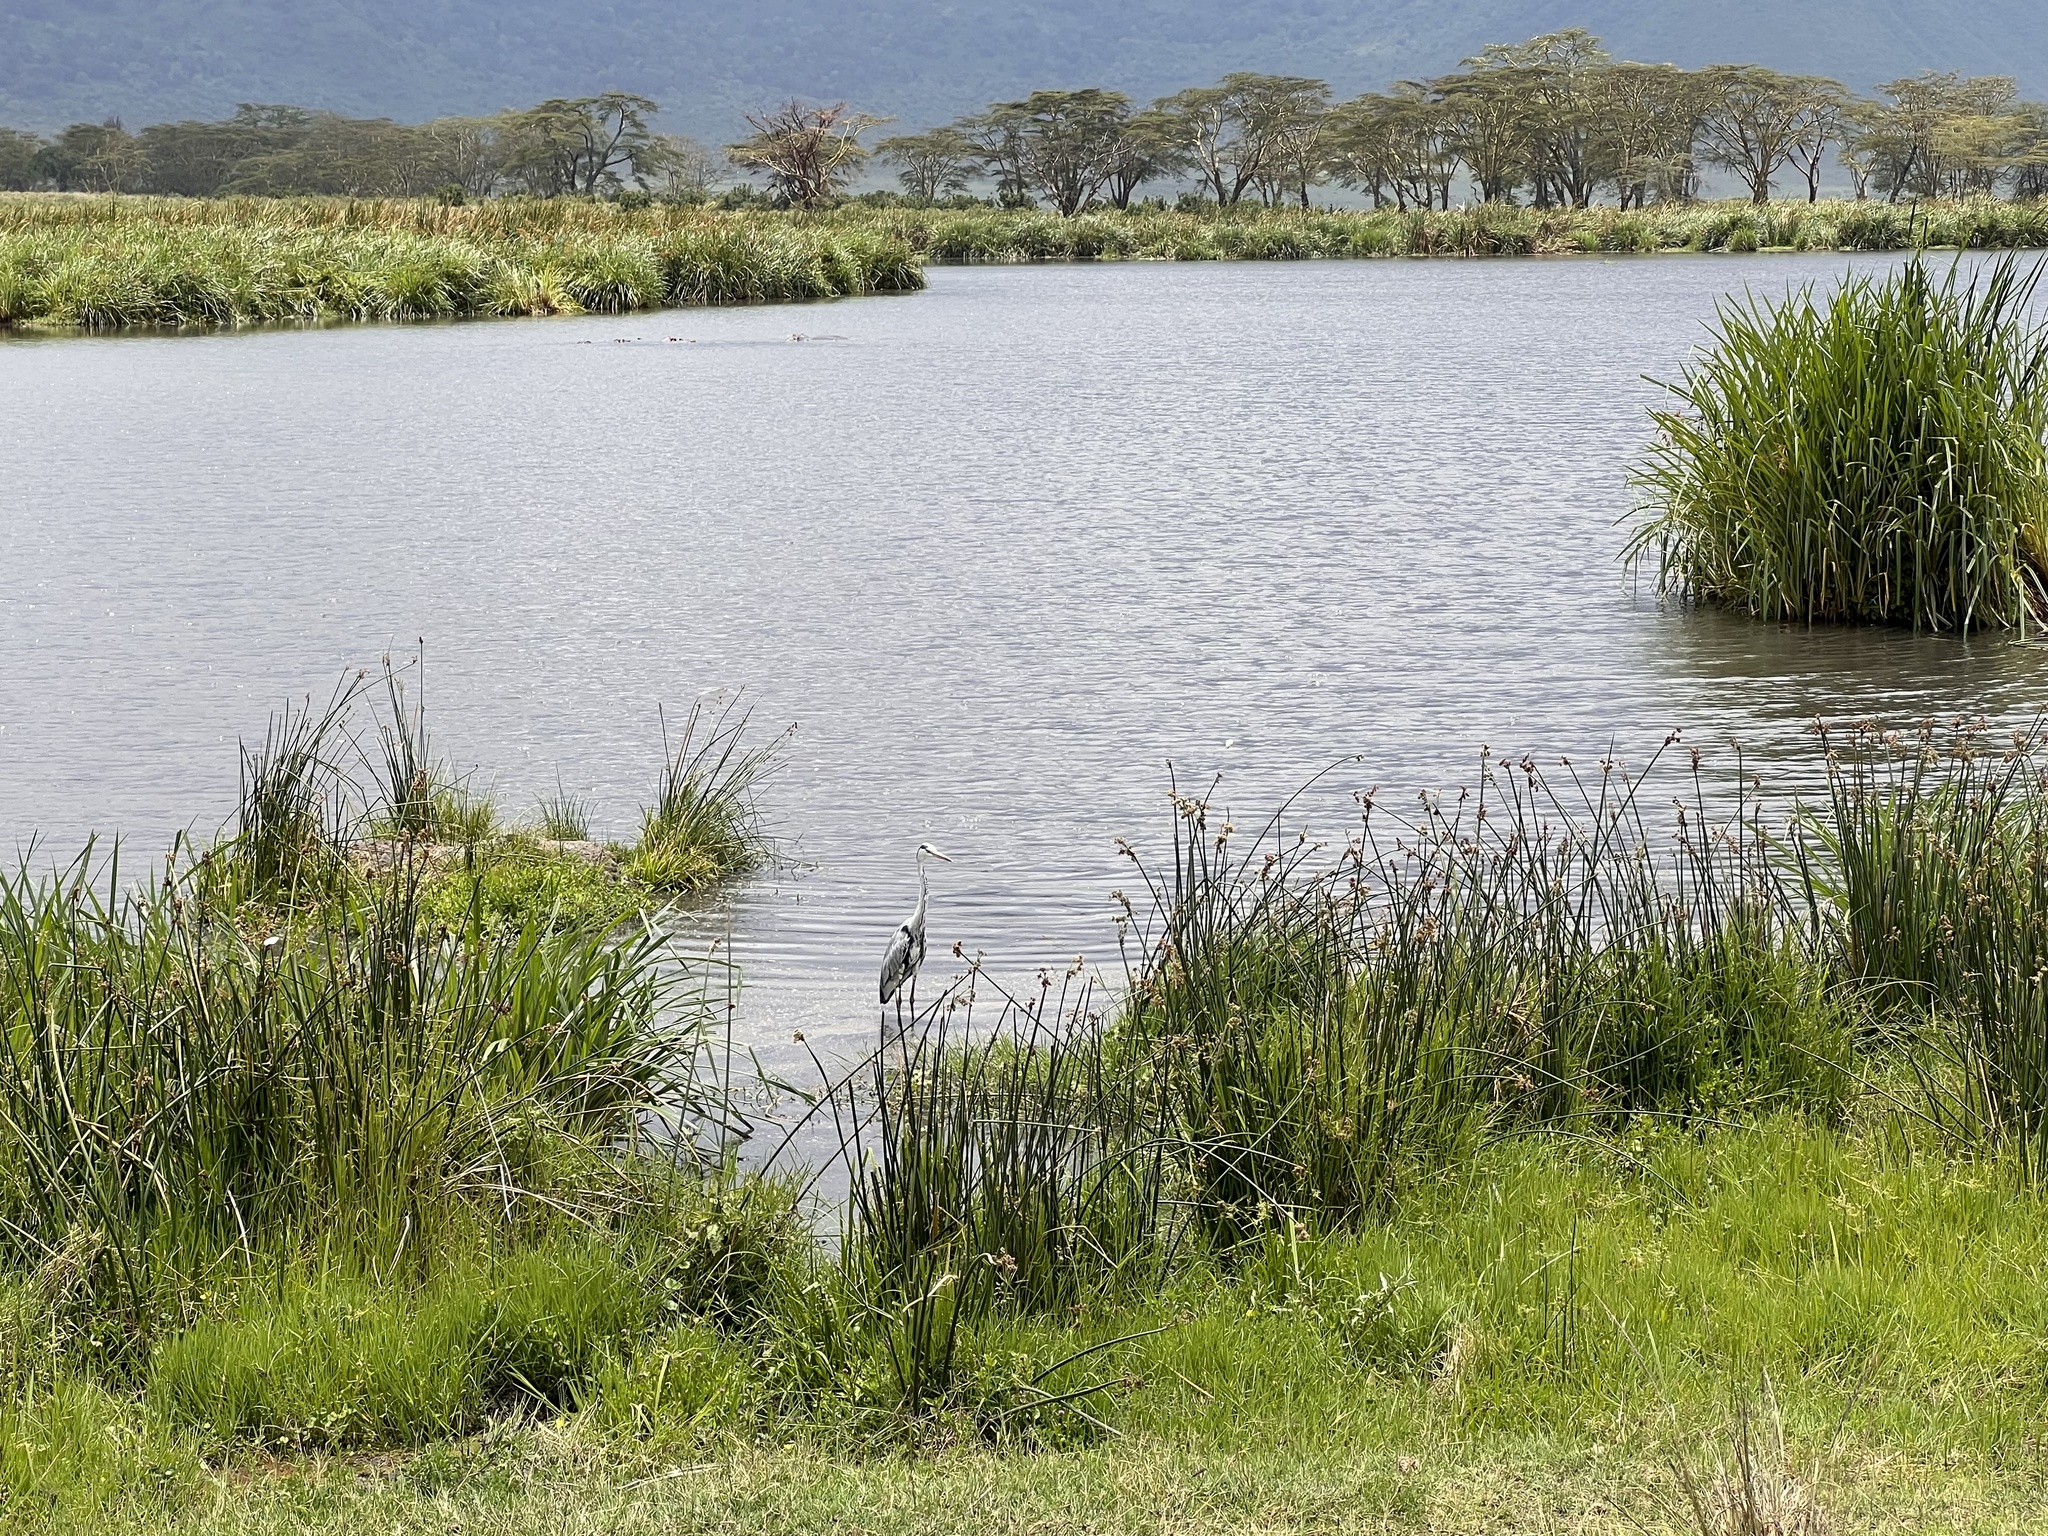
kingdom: Animalia
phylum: Chordata
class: Aves
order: Pelecaniformes
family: Ardeidae
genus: Ardea
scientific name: Ardea cinerea
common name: Grey heron
